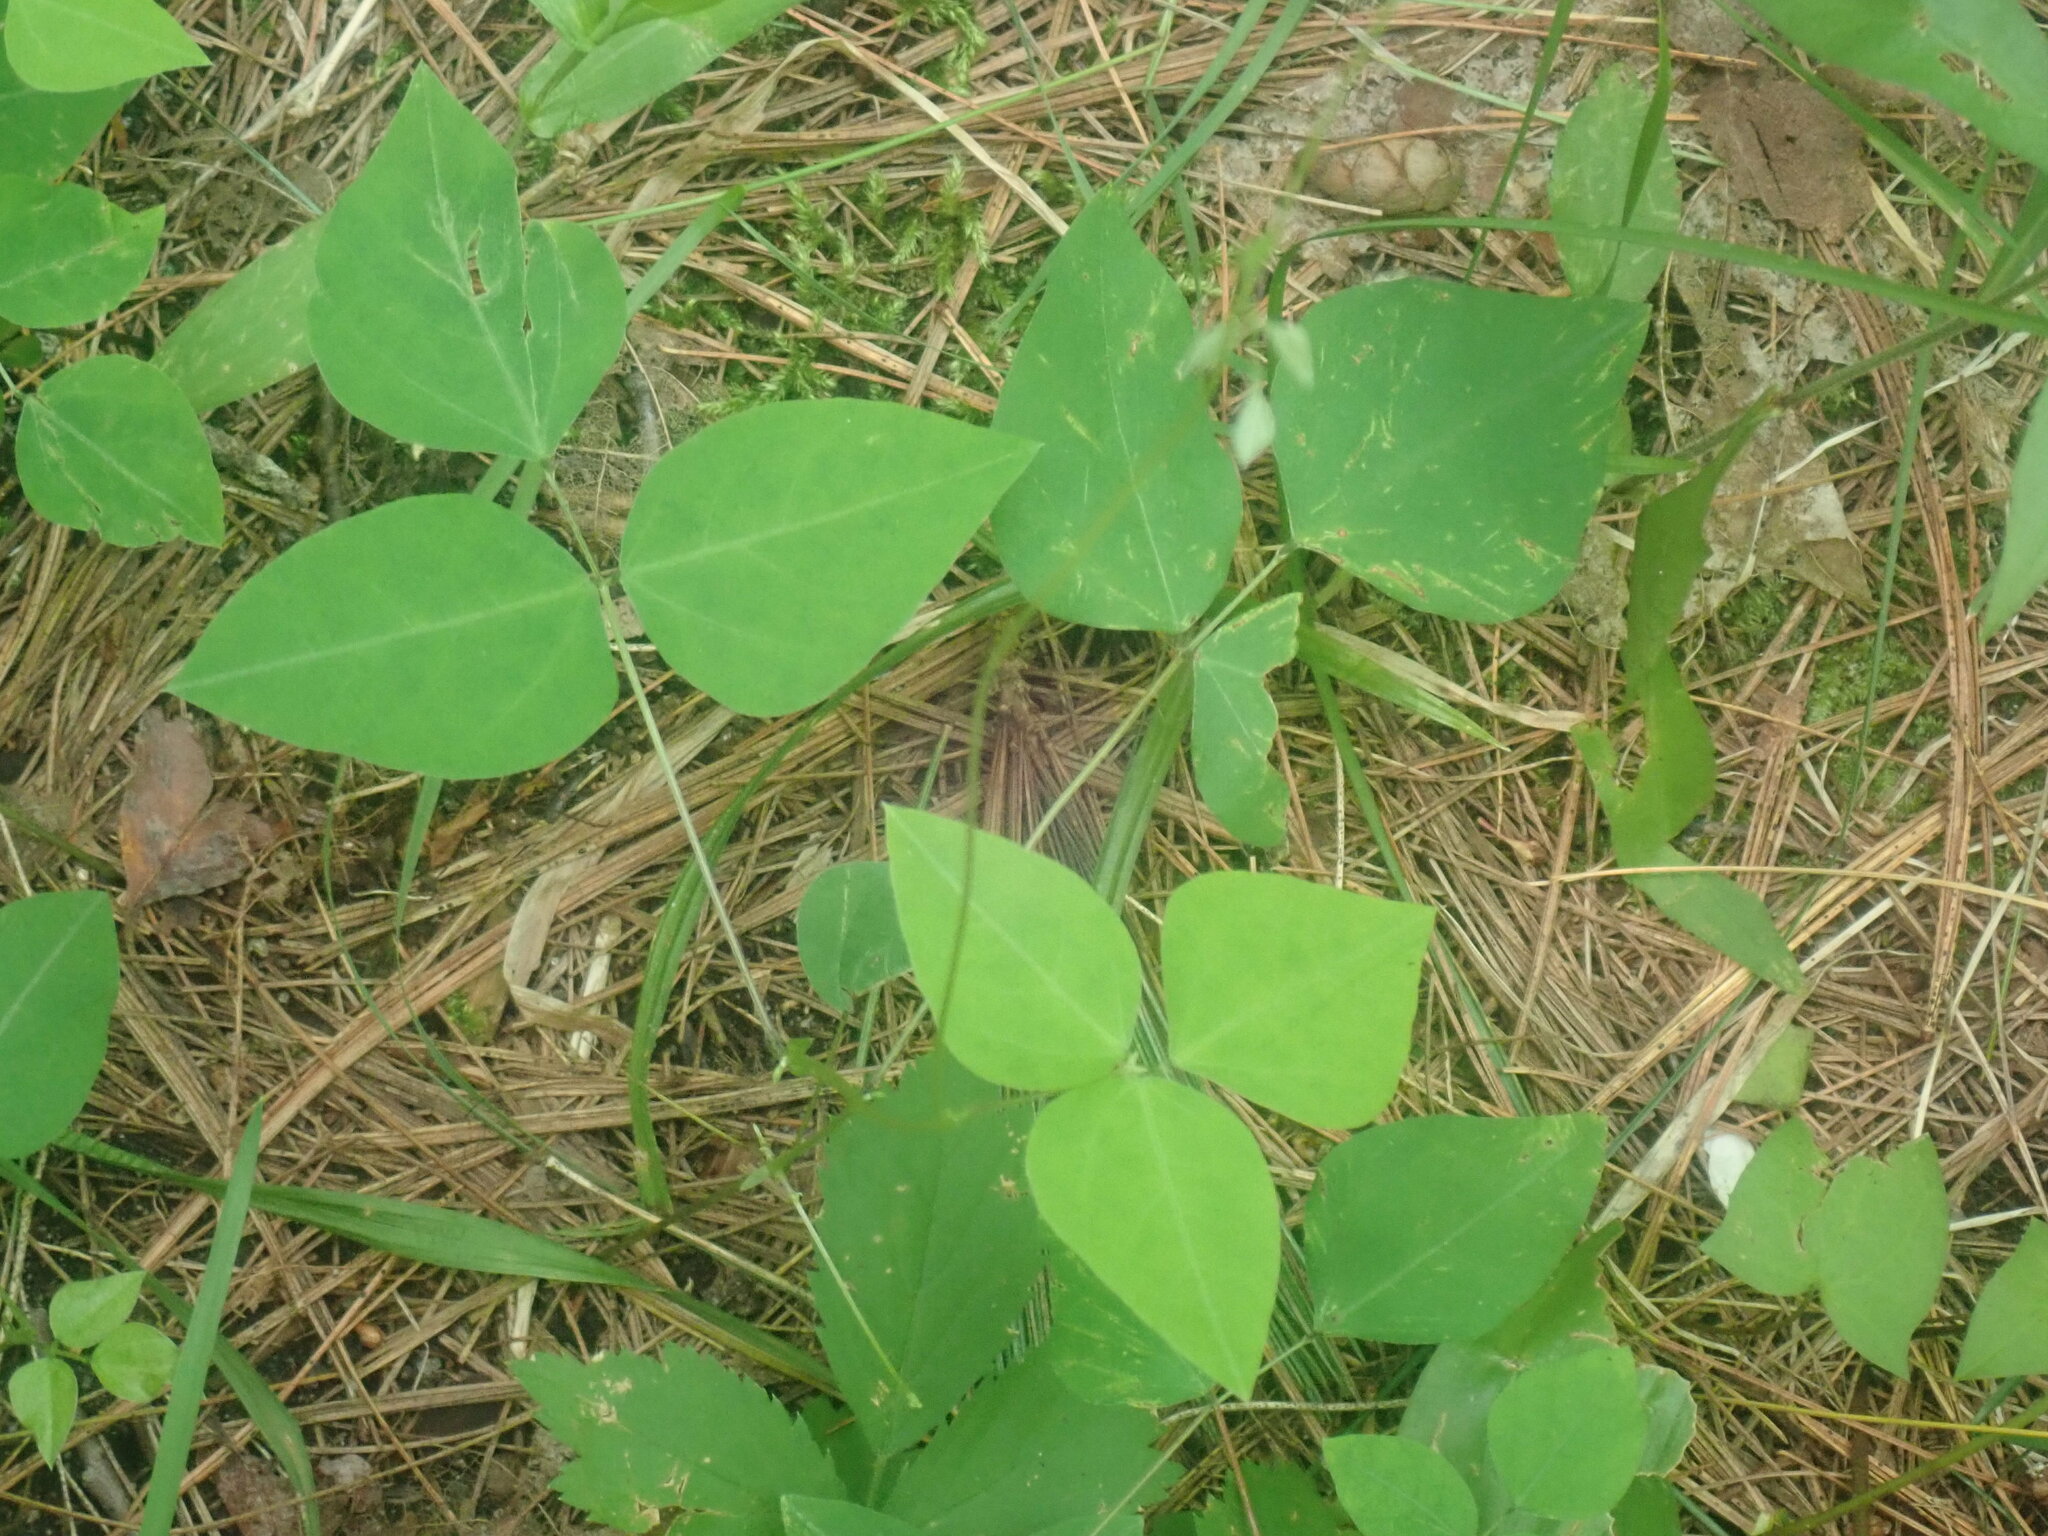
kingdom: Plantae
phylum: Tracheophyta
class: Magnoliopsida
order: Fabales
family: Fabaceae
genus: Amphicarpaea
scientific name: Amphicarpaea bracteata
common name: American hog peanut
